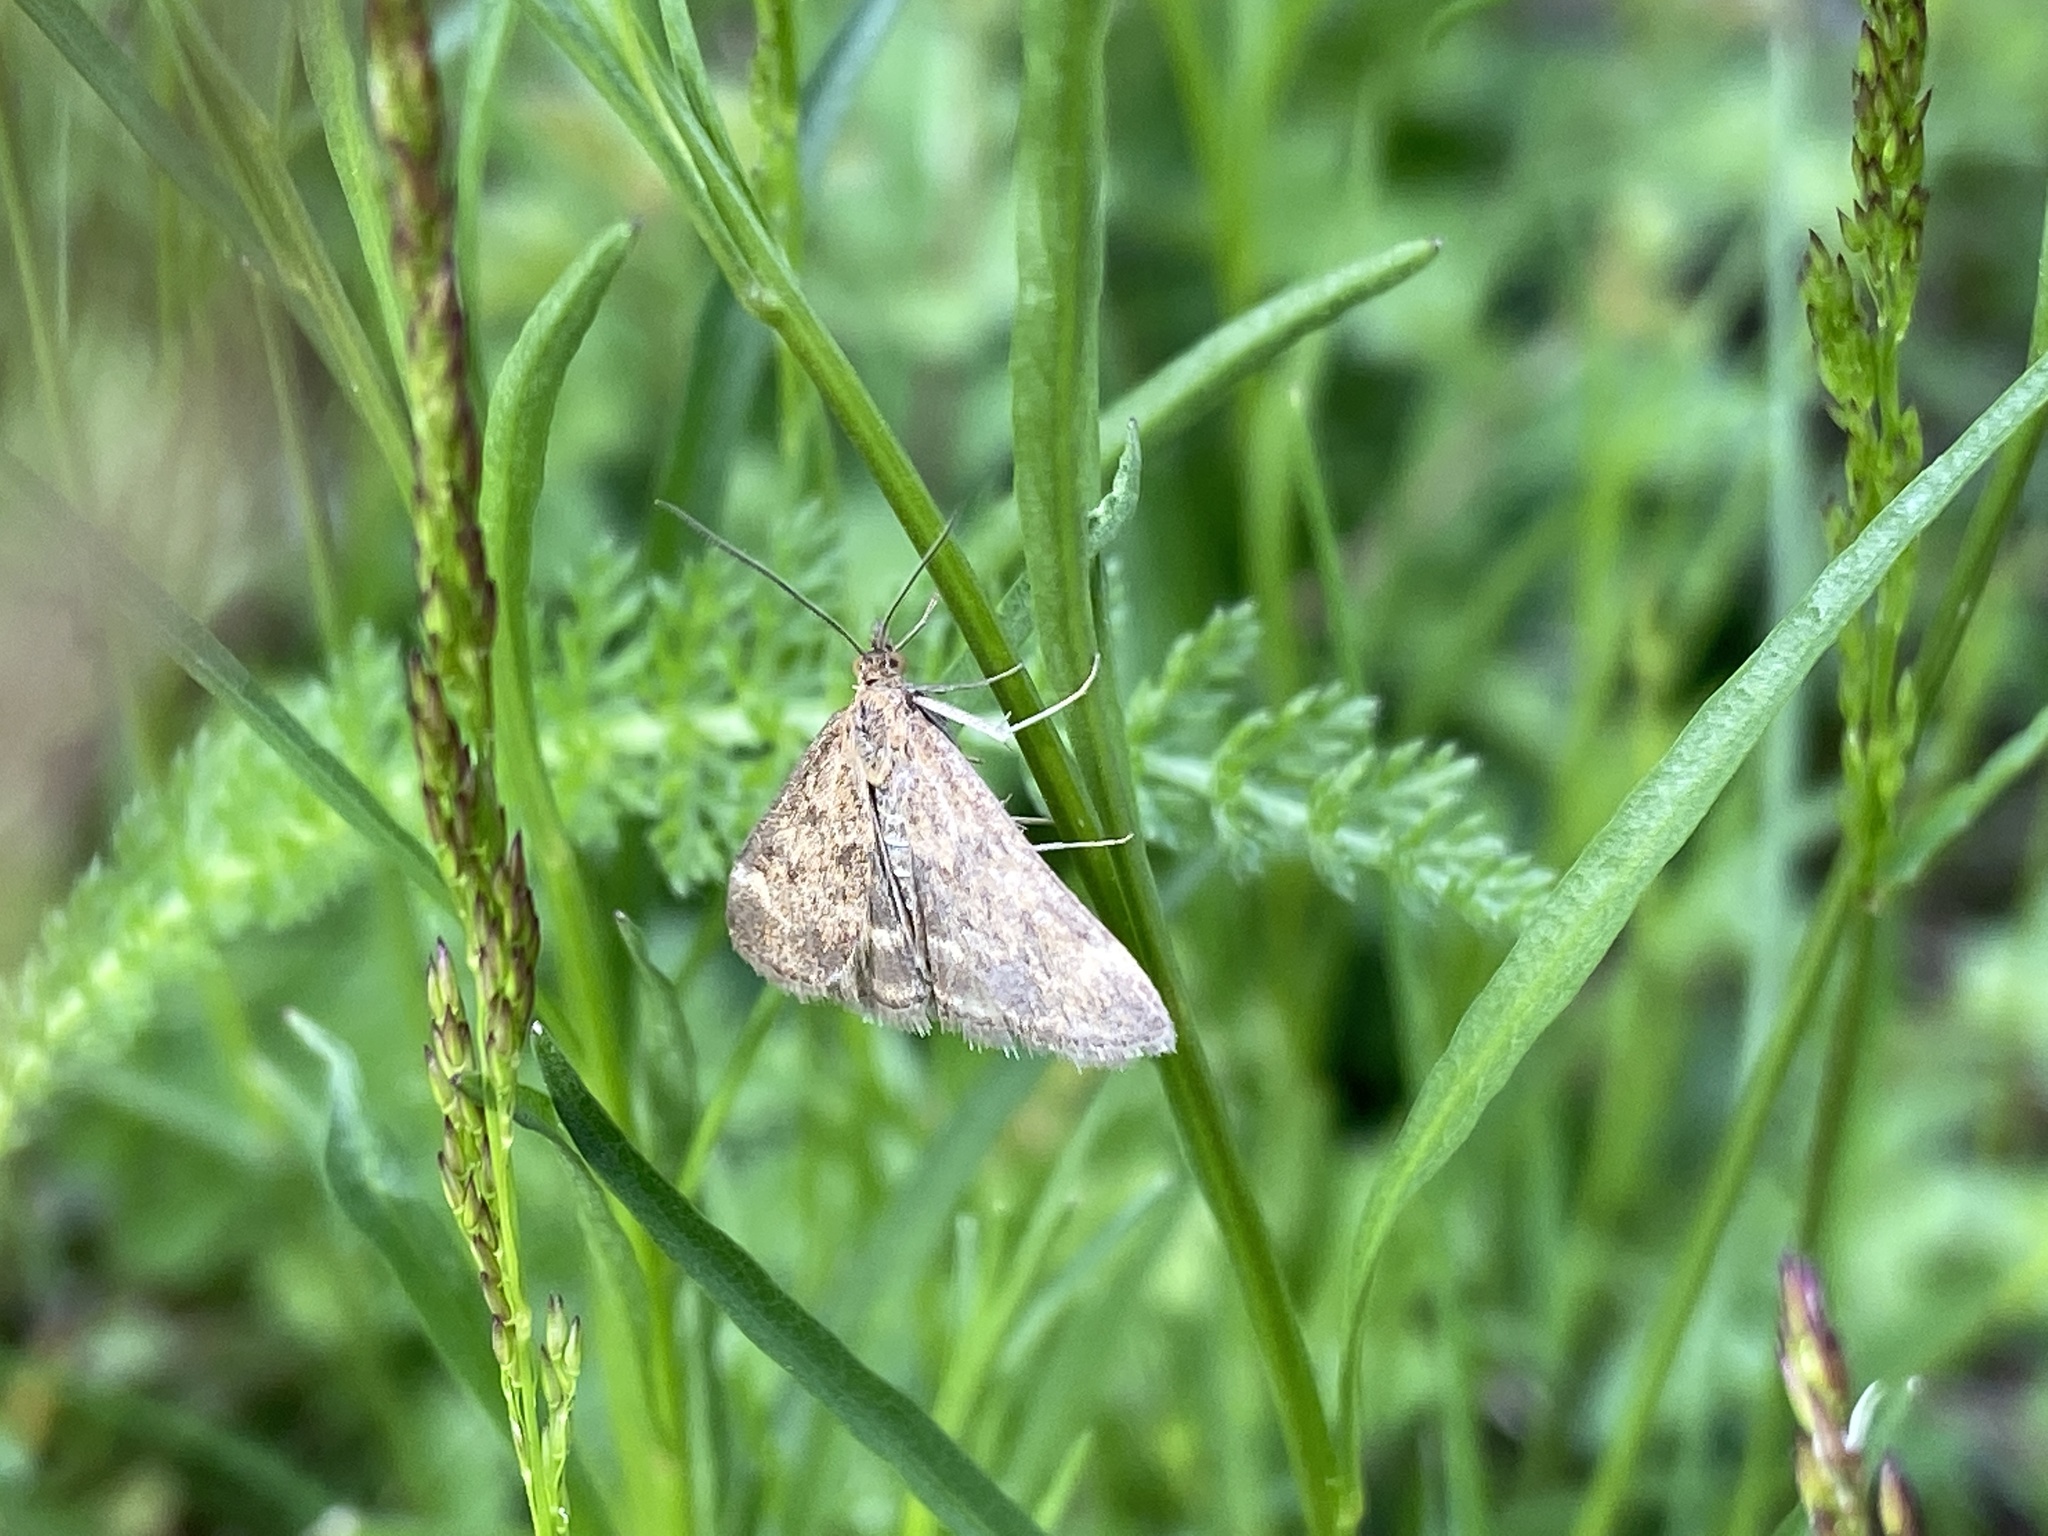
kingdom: Animalia
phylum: Arthropoda
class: Insecta
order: Lepidoptera
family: Crambidae
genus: Pyrausta
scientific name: Pyrausta despicata
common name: Straw-barred pearl
